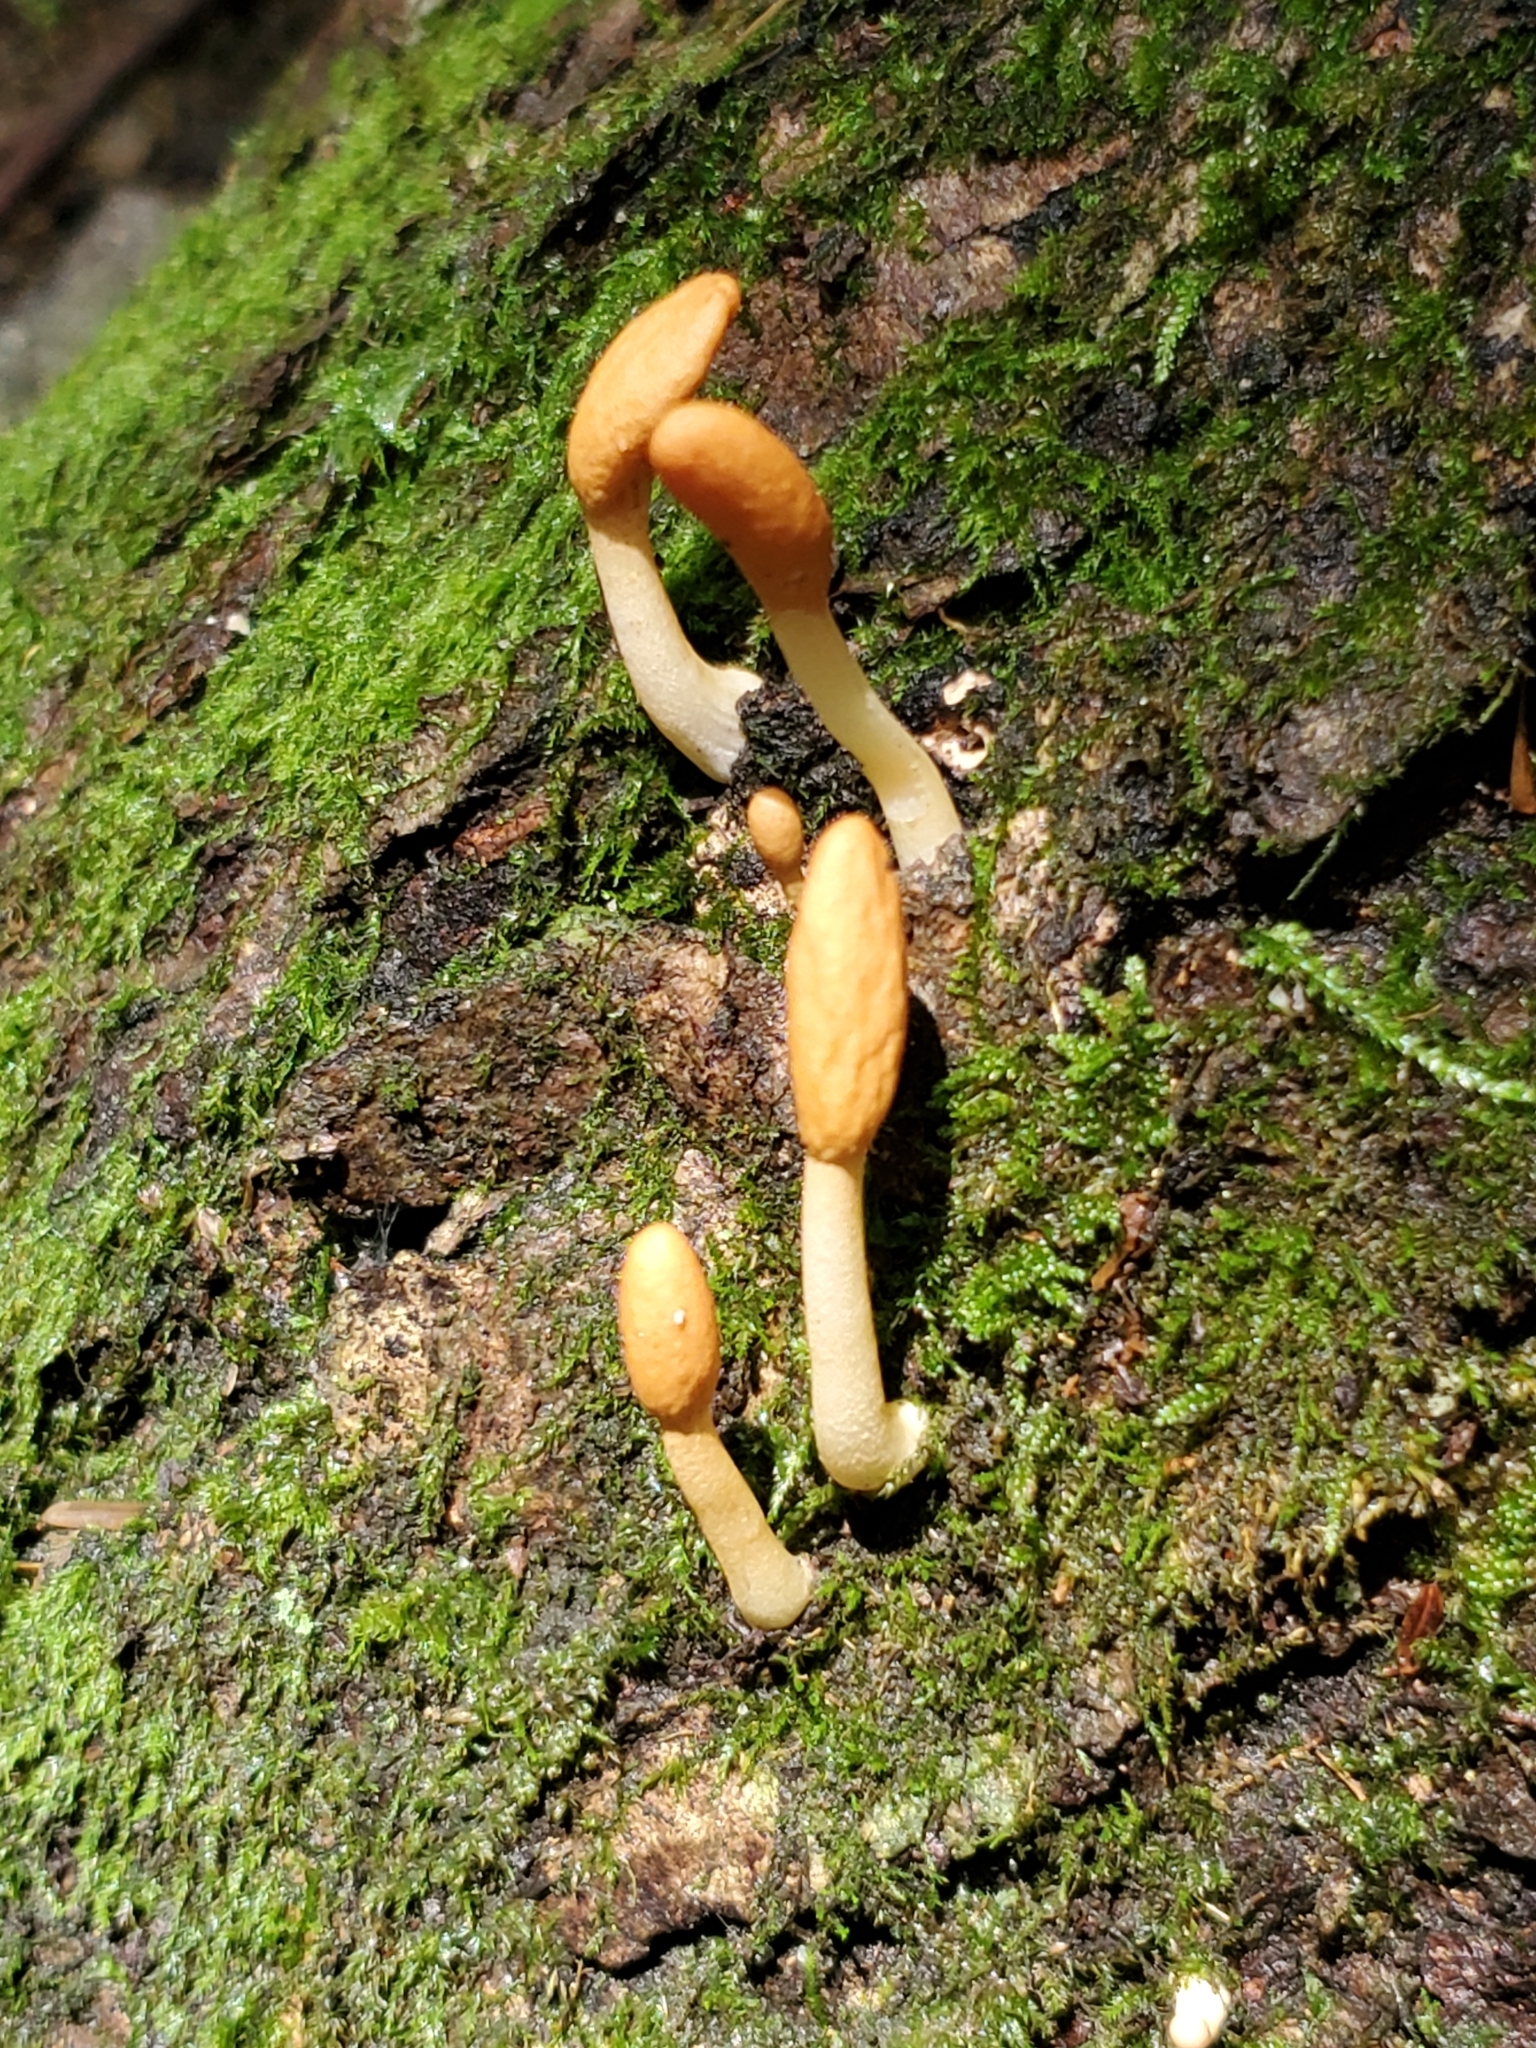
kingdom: Fungi
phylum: Ascomycota
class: Sordariomycetes
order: Hypocreales
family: Hypocreaceae
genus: Trichoderma
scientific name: Trichoderma alutaceum
